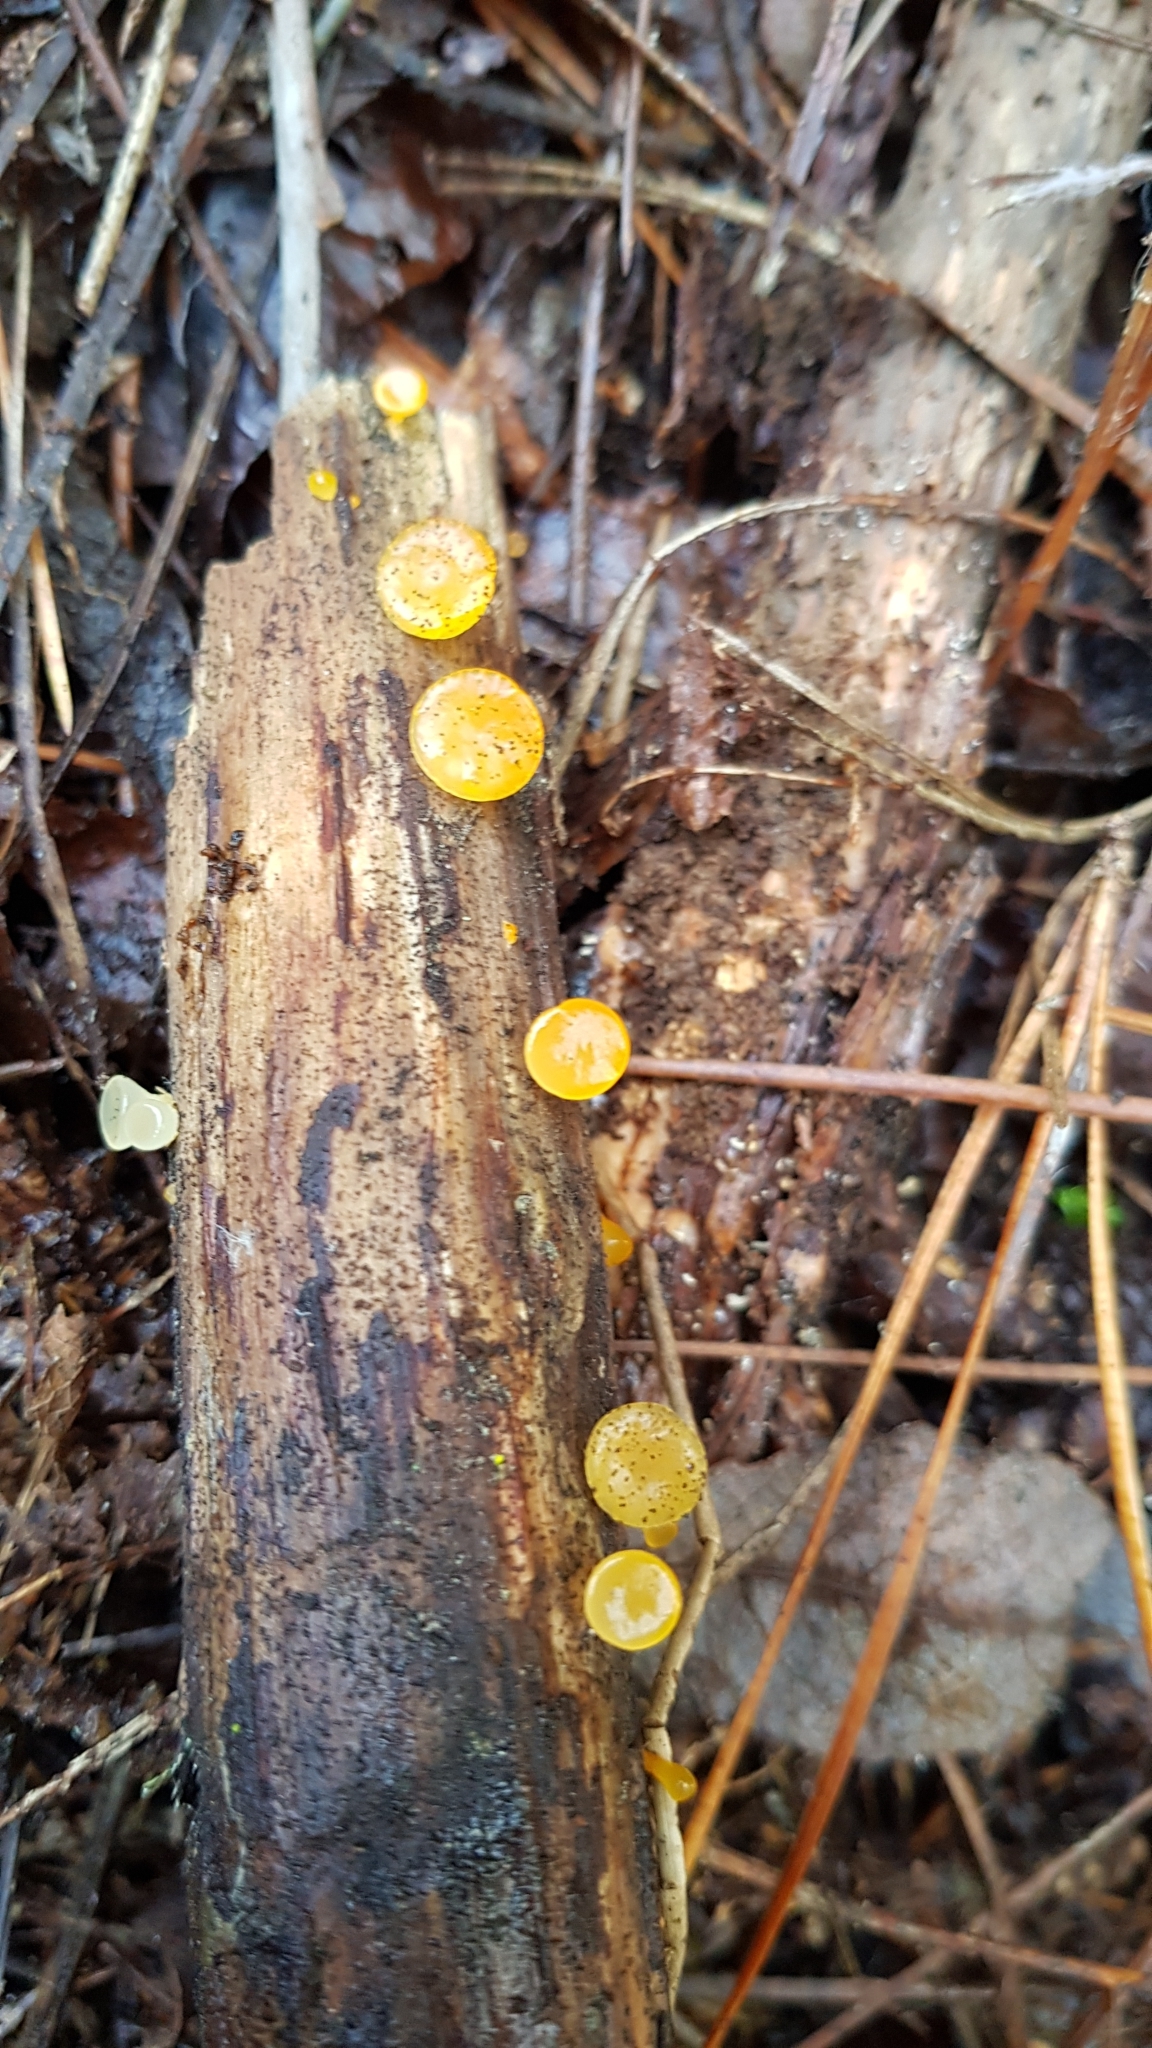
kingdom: Fungi
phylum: Basidiomycota
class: Dacrymycetes
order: Dacrymycetales
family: Dacrymycetaceae
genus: Heterotextus
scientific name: Heterotextus miltinus
